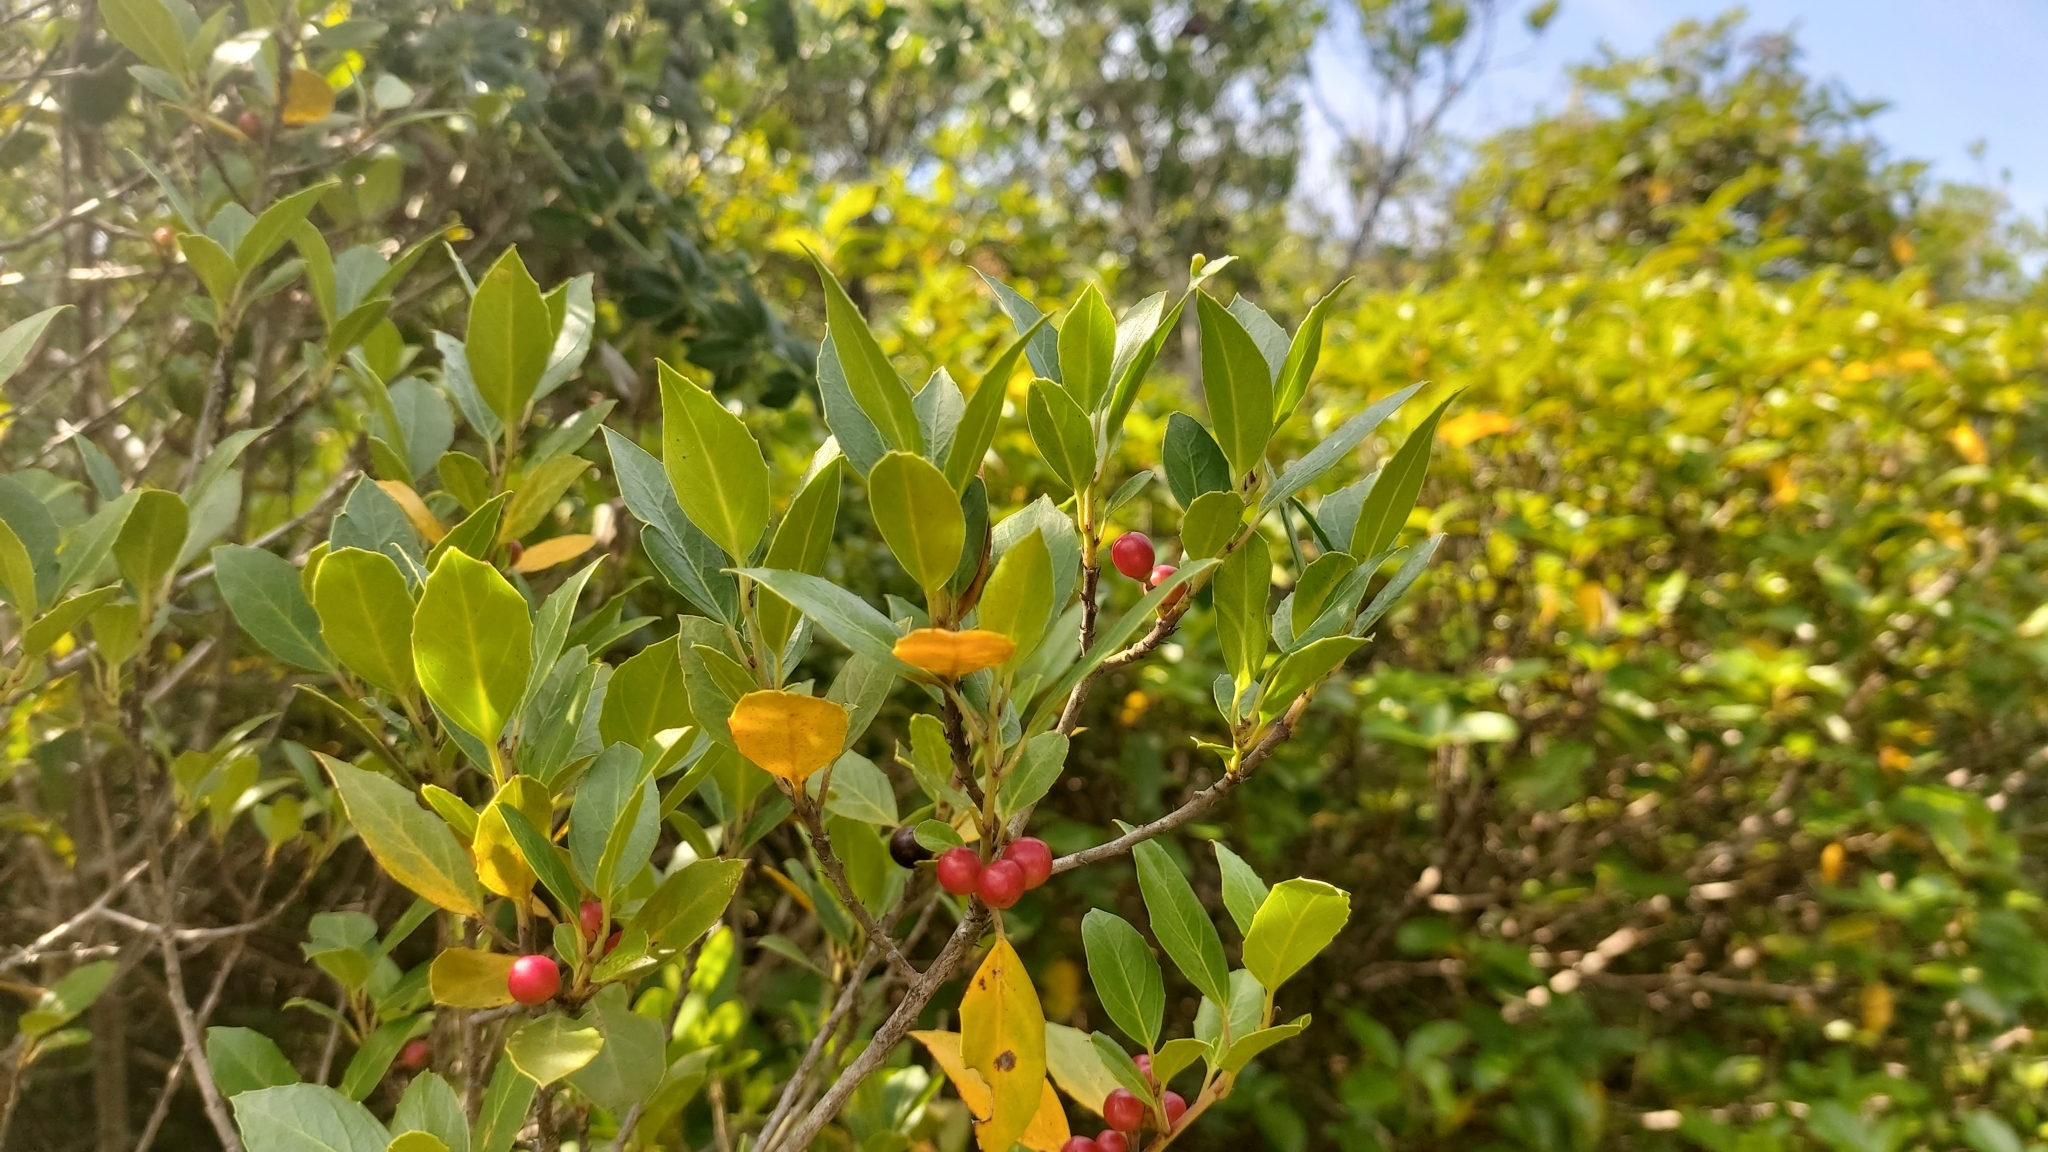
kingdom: Plantae
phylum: Tracheophyta
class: Magnoliopsida
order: Rosales
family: Rhamnaceae
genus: Rhamnus
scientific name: Rhamnus alaternus
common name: Mediterranean buckthorn
